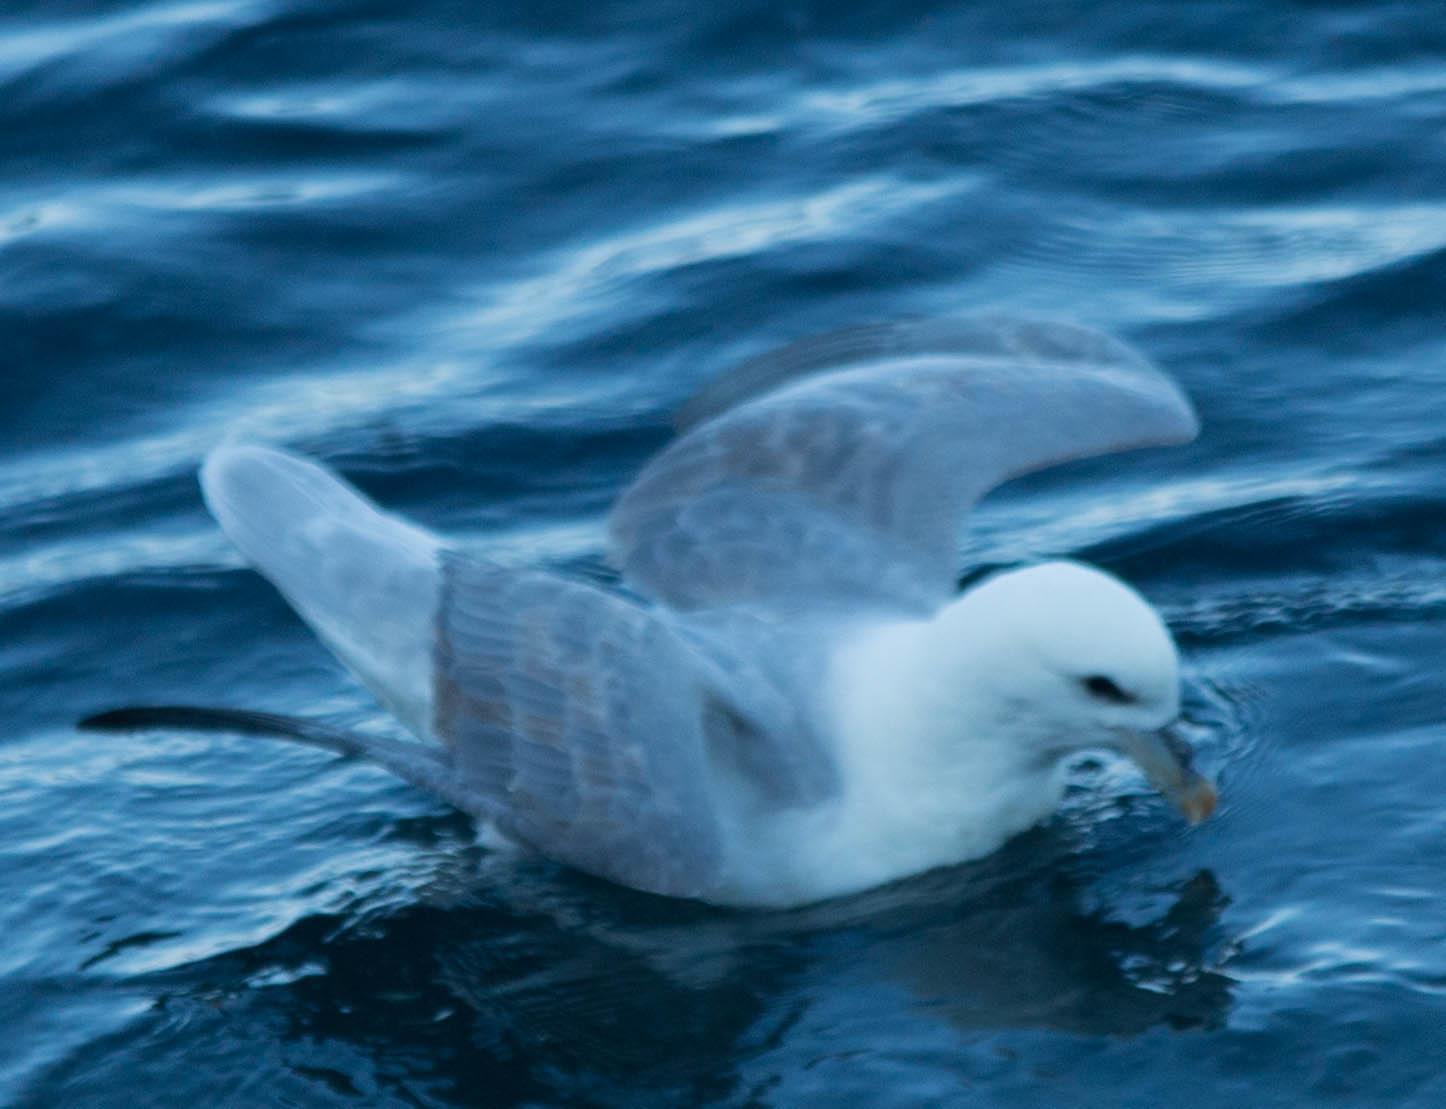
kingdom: Animalia
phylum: Chordata
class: Aves
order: Procellariiformes
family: Procellariidae
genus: Fulmarus
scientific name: Fulmarus glacialis
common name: Northern fulmar
